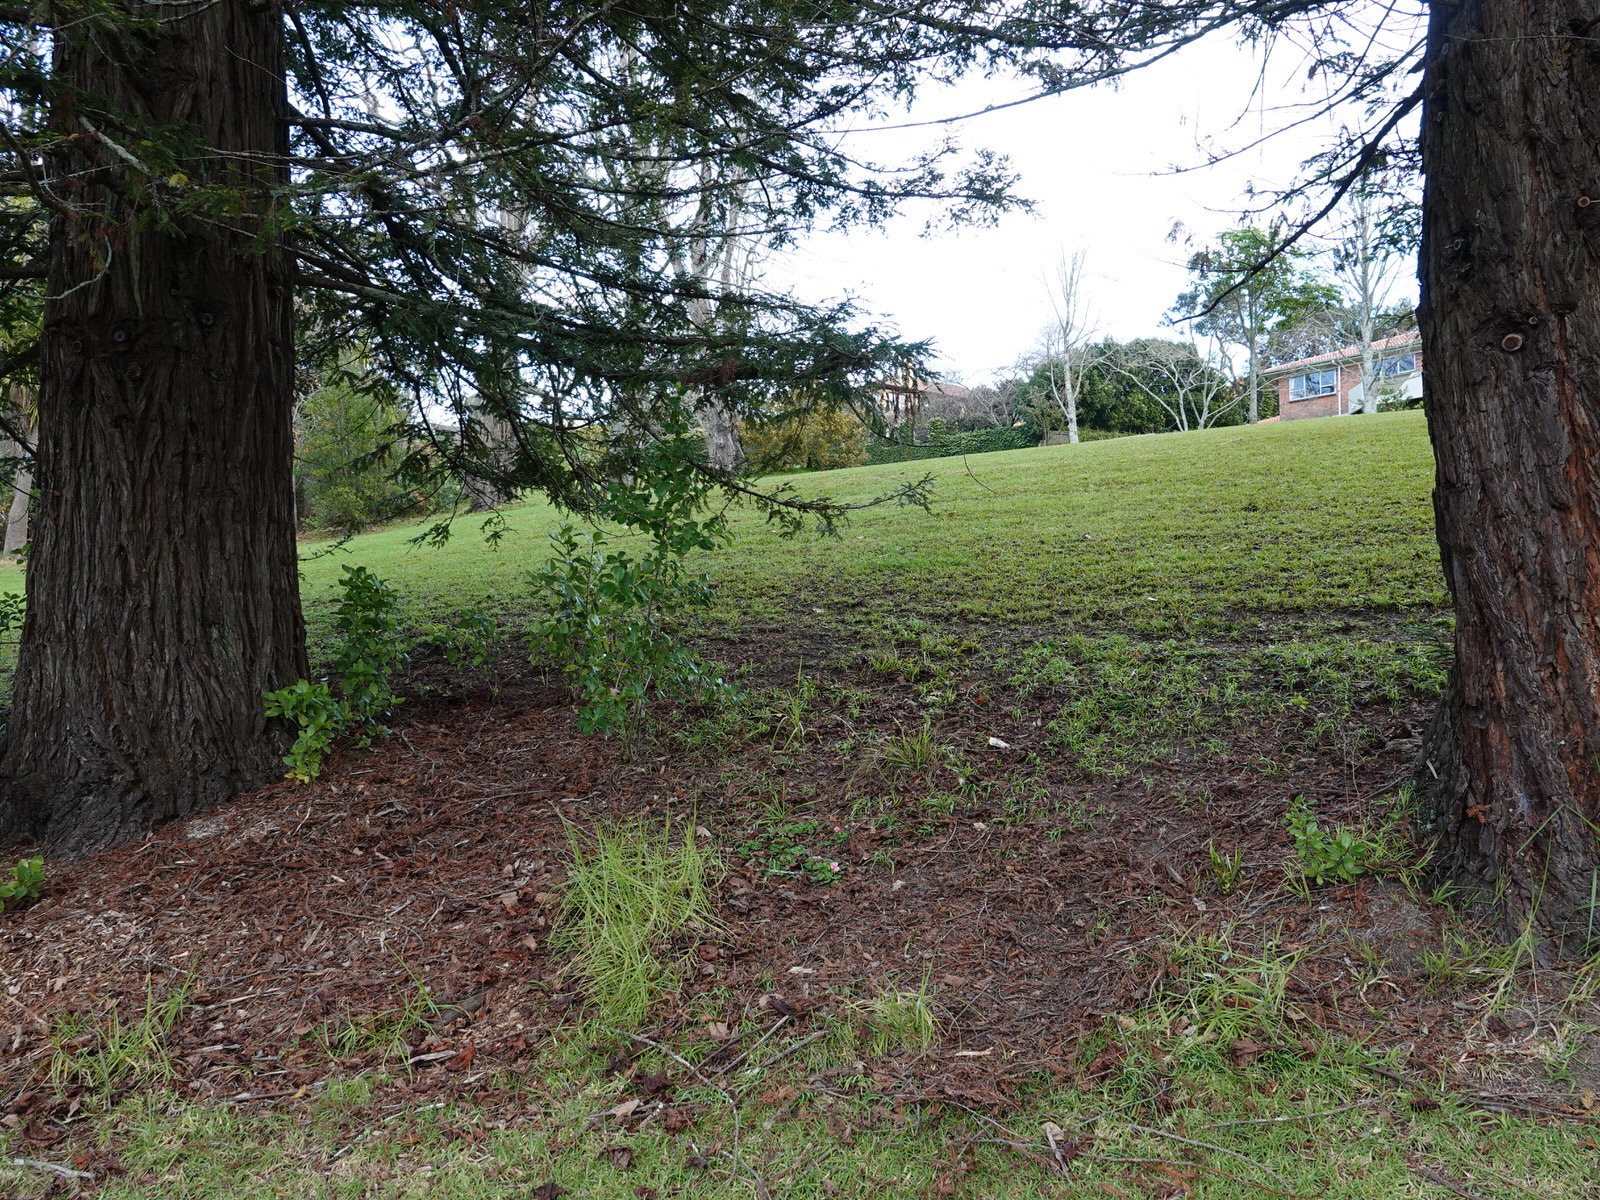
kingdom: Plantae
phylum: Tracheophyta
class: Magnoliopsida
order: Oxalidales
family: Oxalidaceae
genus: Oxalis
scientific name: Oxalis purpurea
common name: Purple woodsorrel
